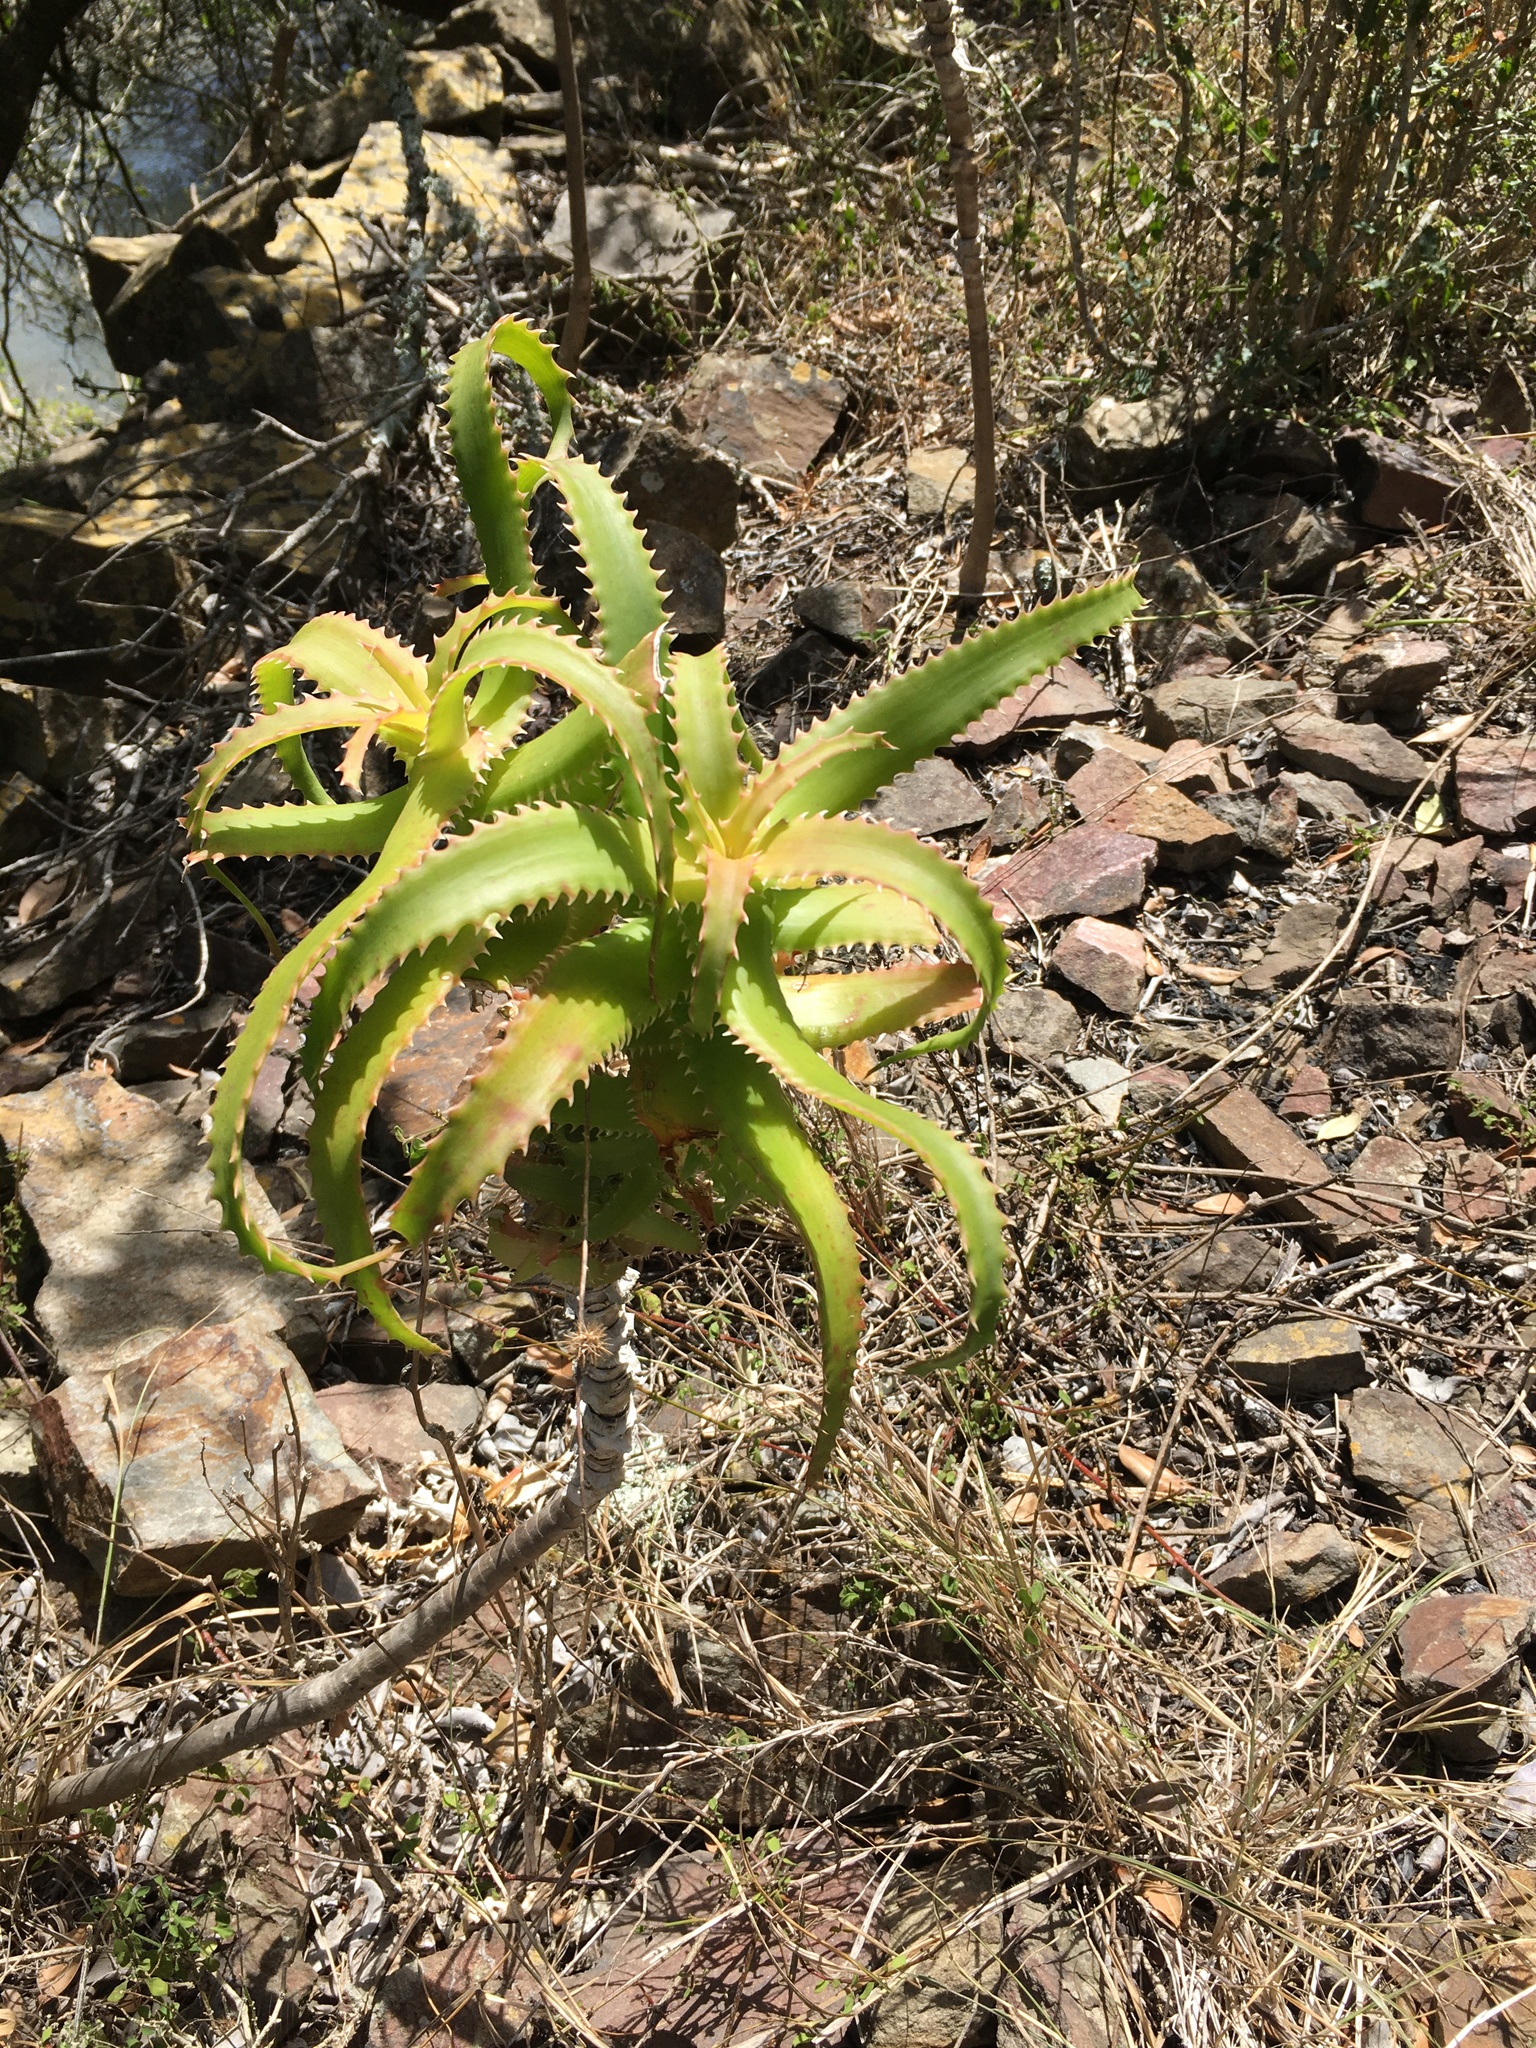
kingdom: Plantae
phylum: Tracheophyta
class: Liliopsida
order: Asparagales
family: Asphodelaceae
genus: Aloe
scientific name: Aloe pluridens
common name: French aloe
